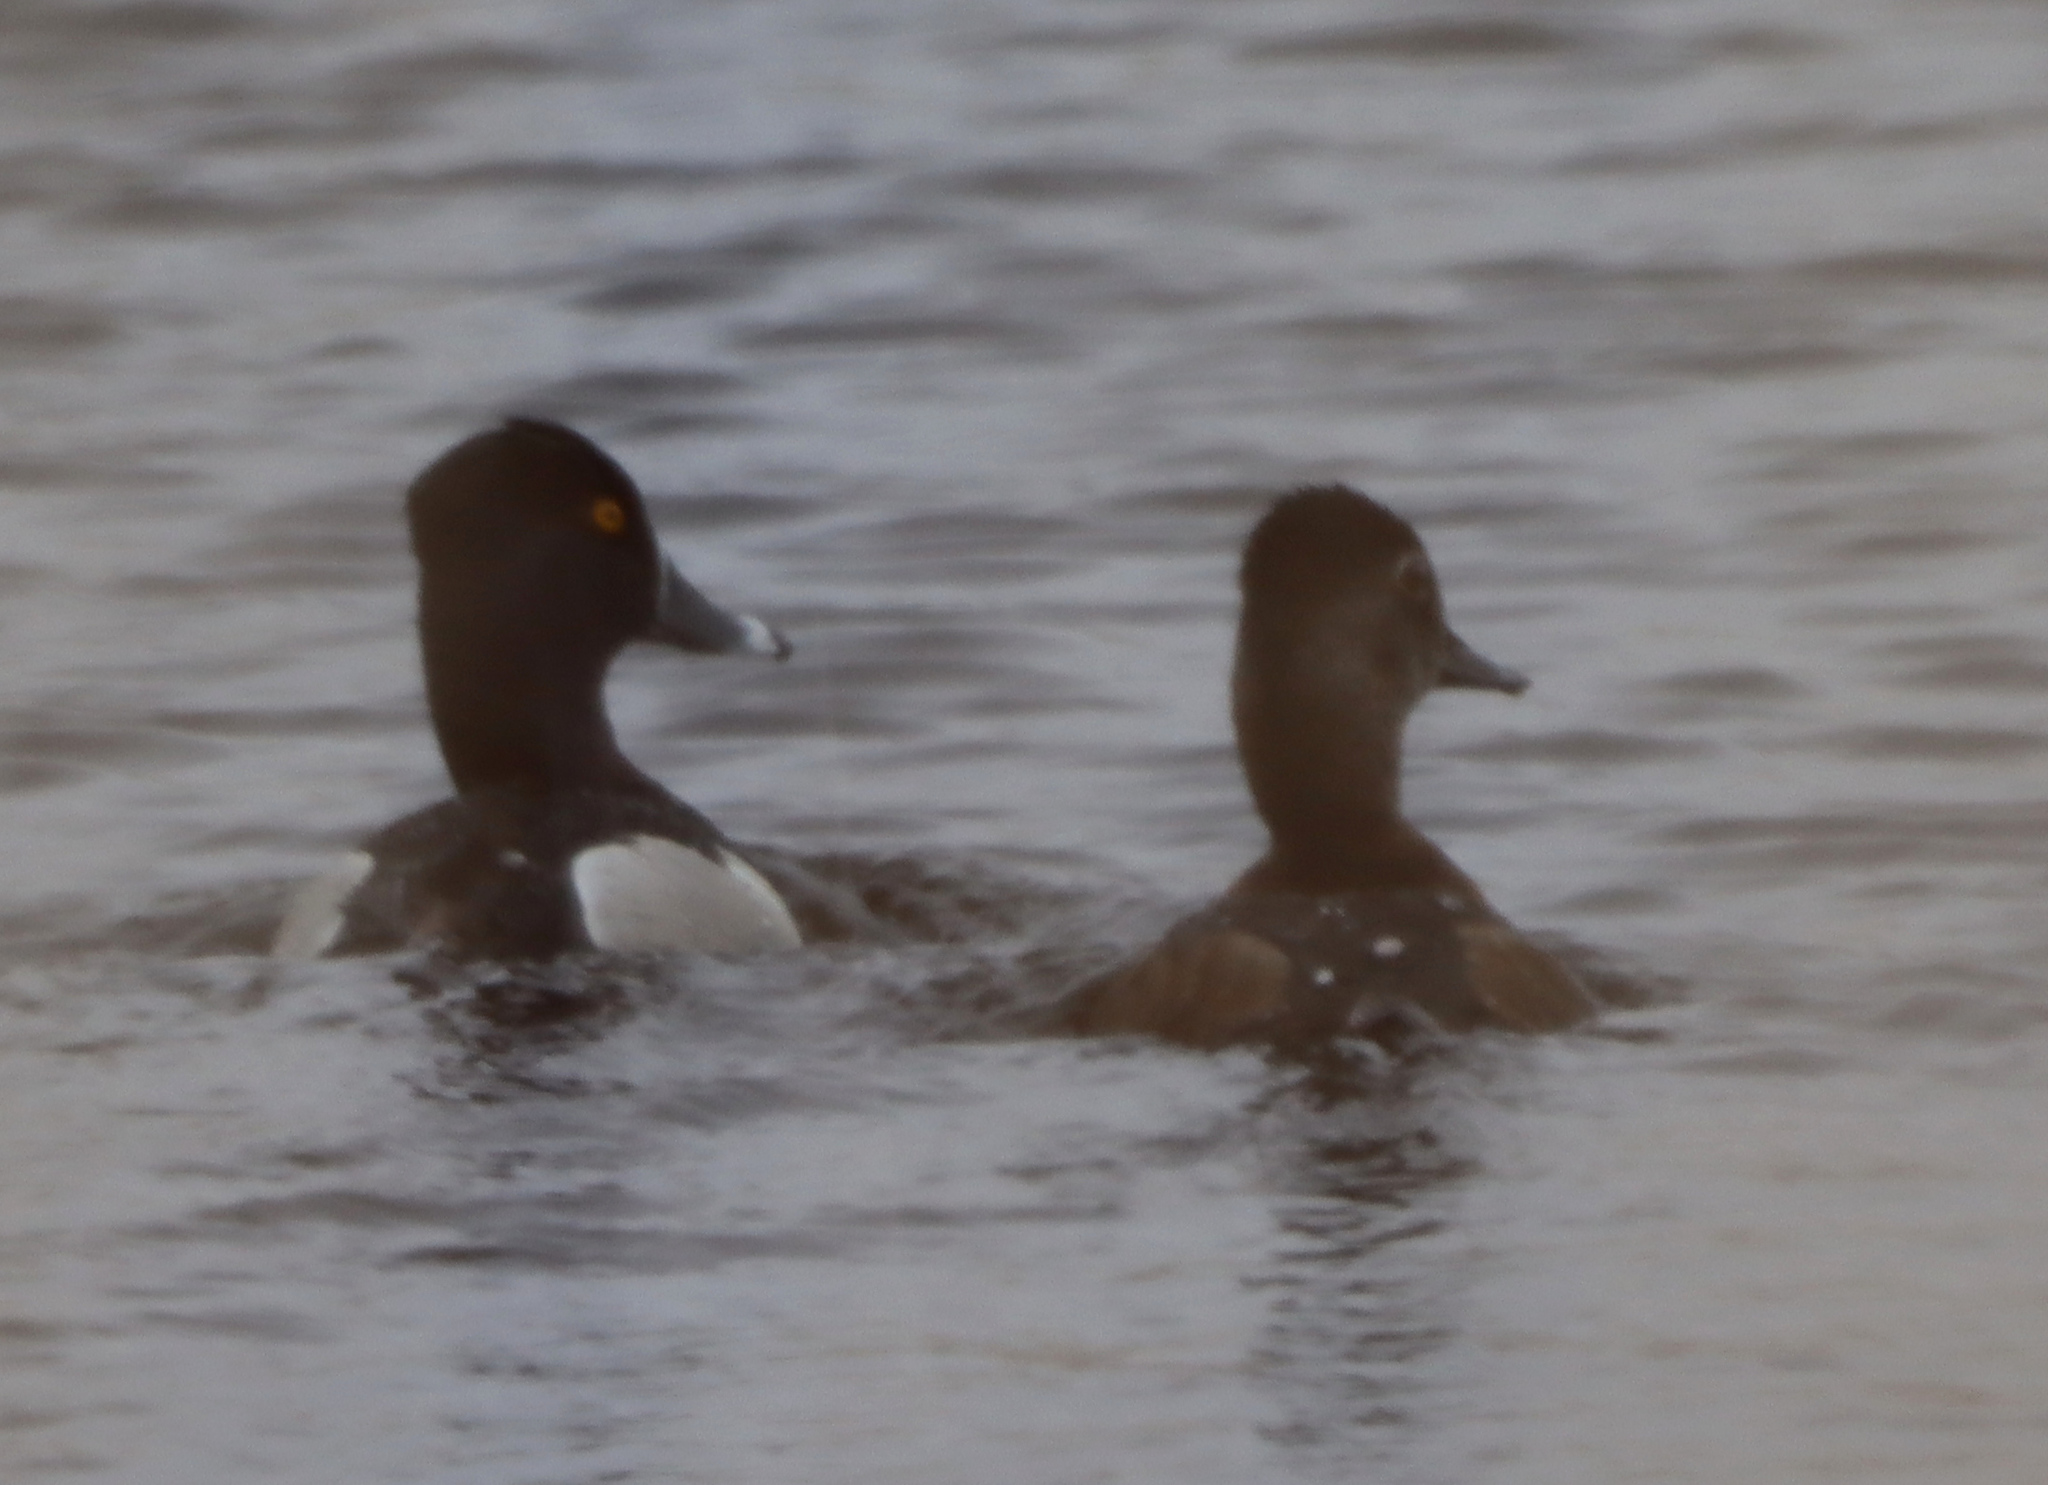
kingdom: Animalia
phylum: Chordata
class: Aves
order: Anseriformes
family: Anatidae
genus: Aythya
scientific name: Aythya collaris
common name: Ring-necked duck
